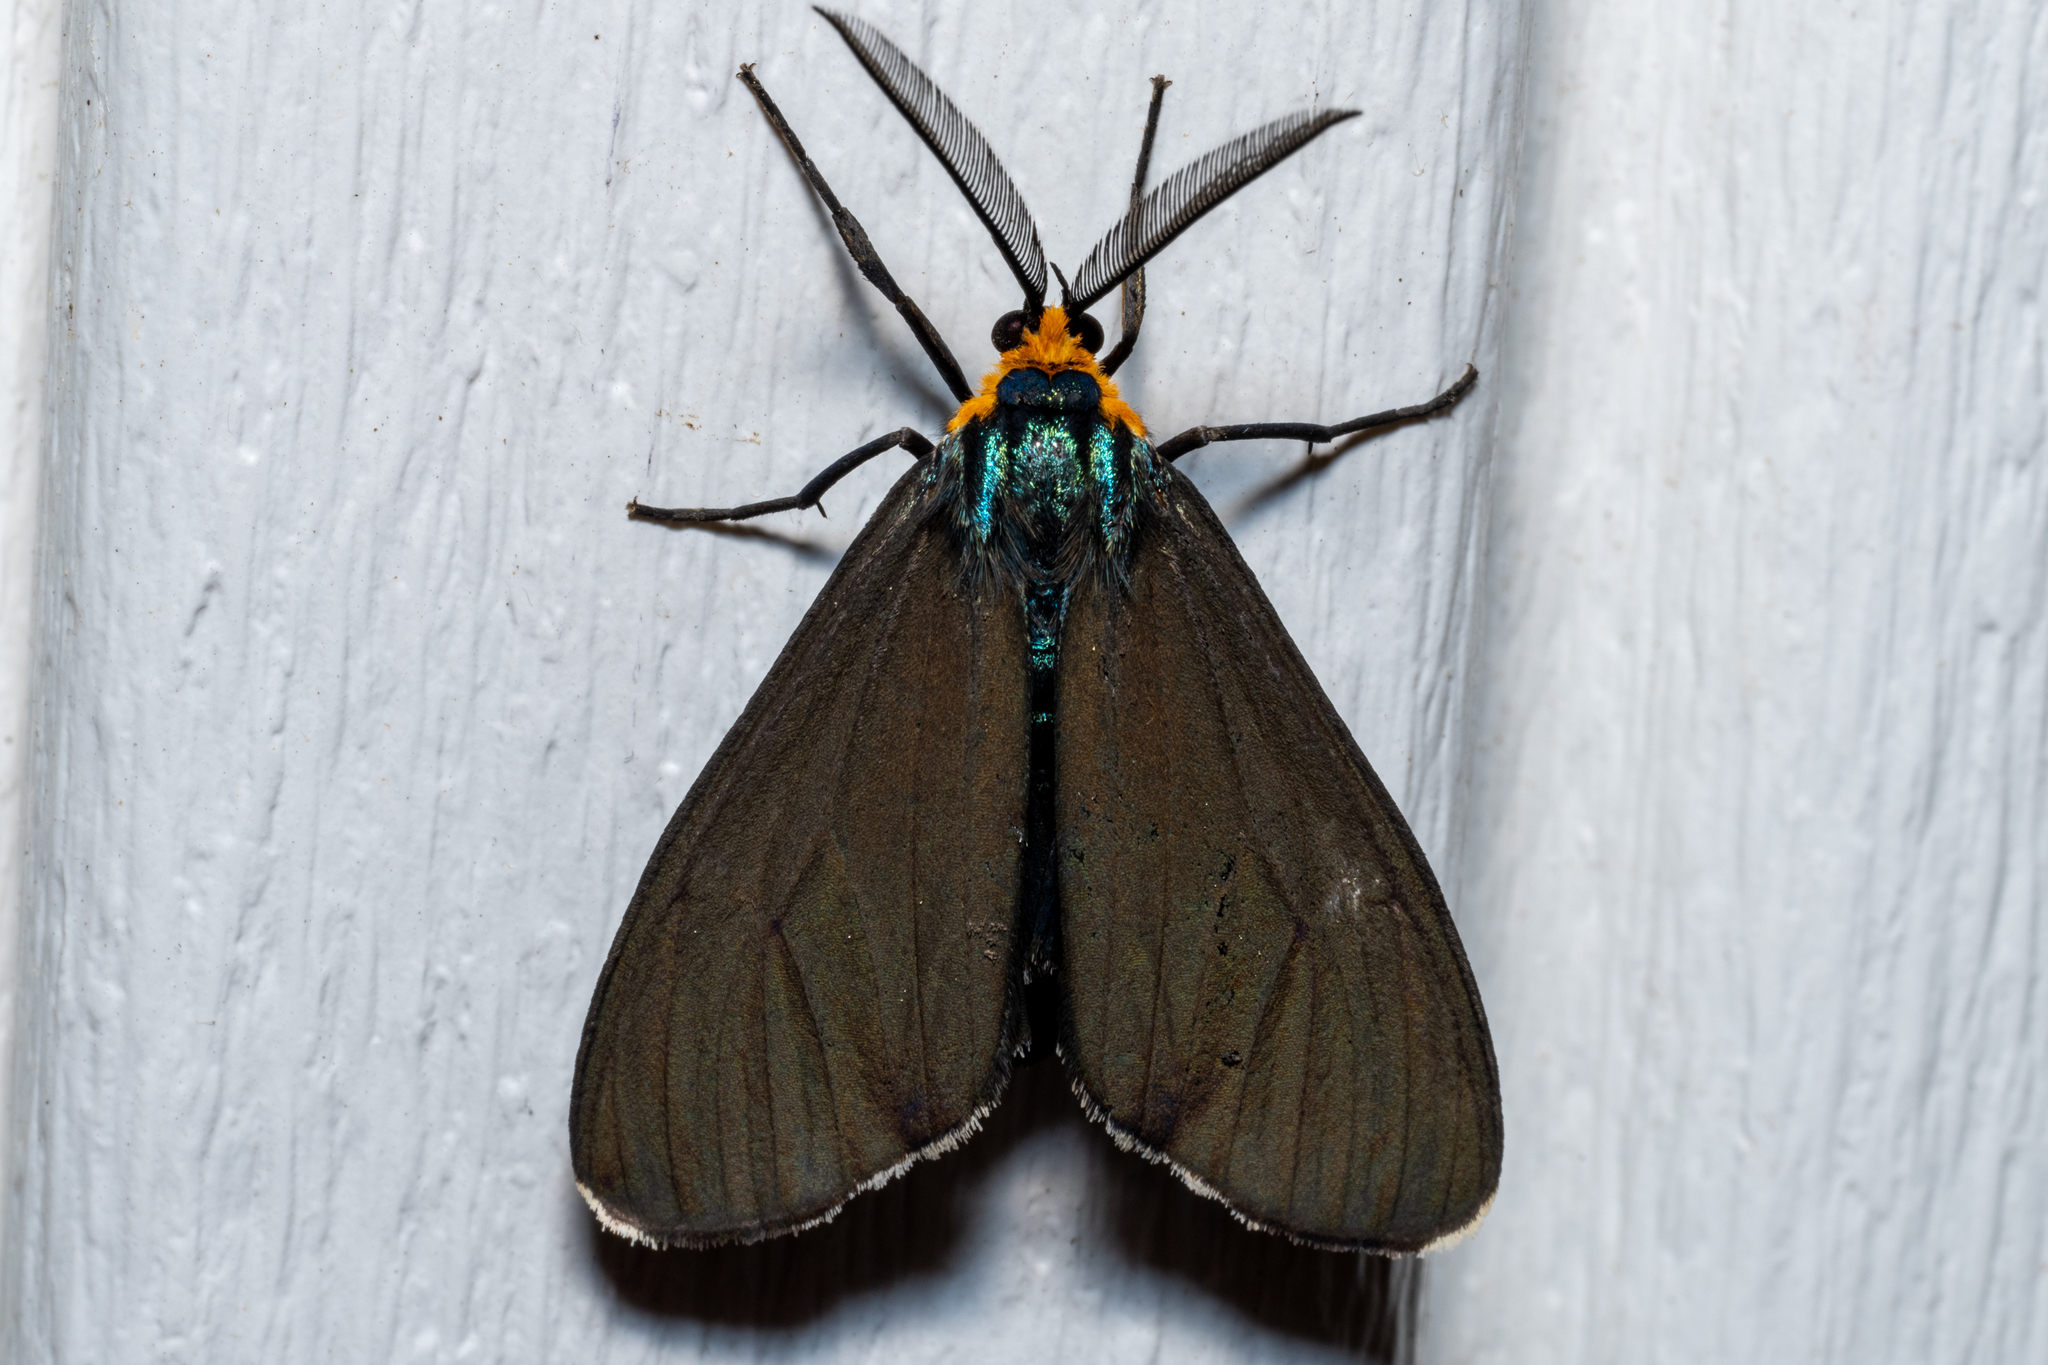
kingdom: Animalia
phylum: Arthropoda
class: Insecta
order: Lepidoptera
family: Erebidae
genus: Ctenucha
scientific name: Ctenucha virginica
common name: Virginia ctenucha moth
